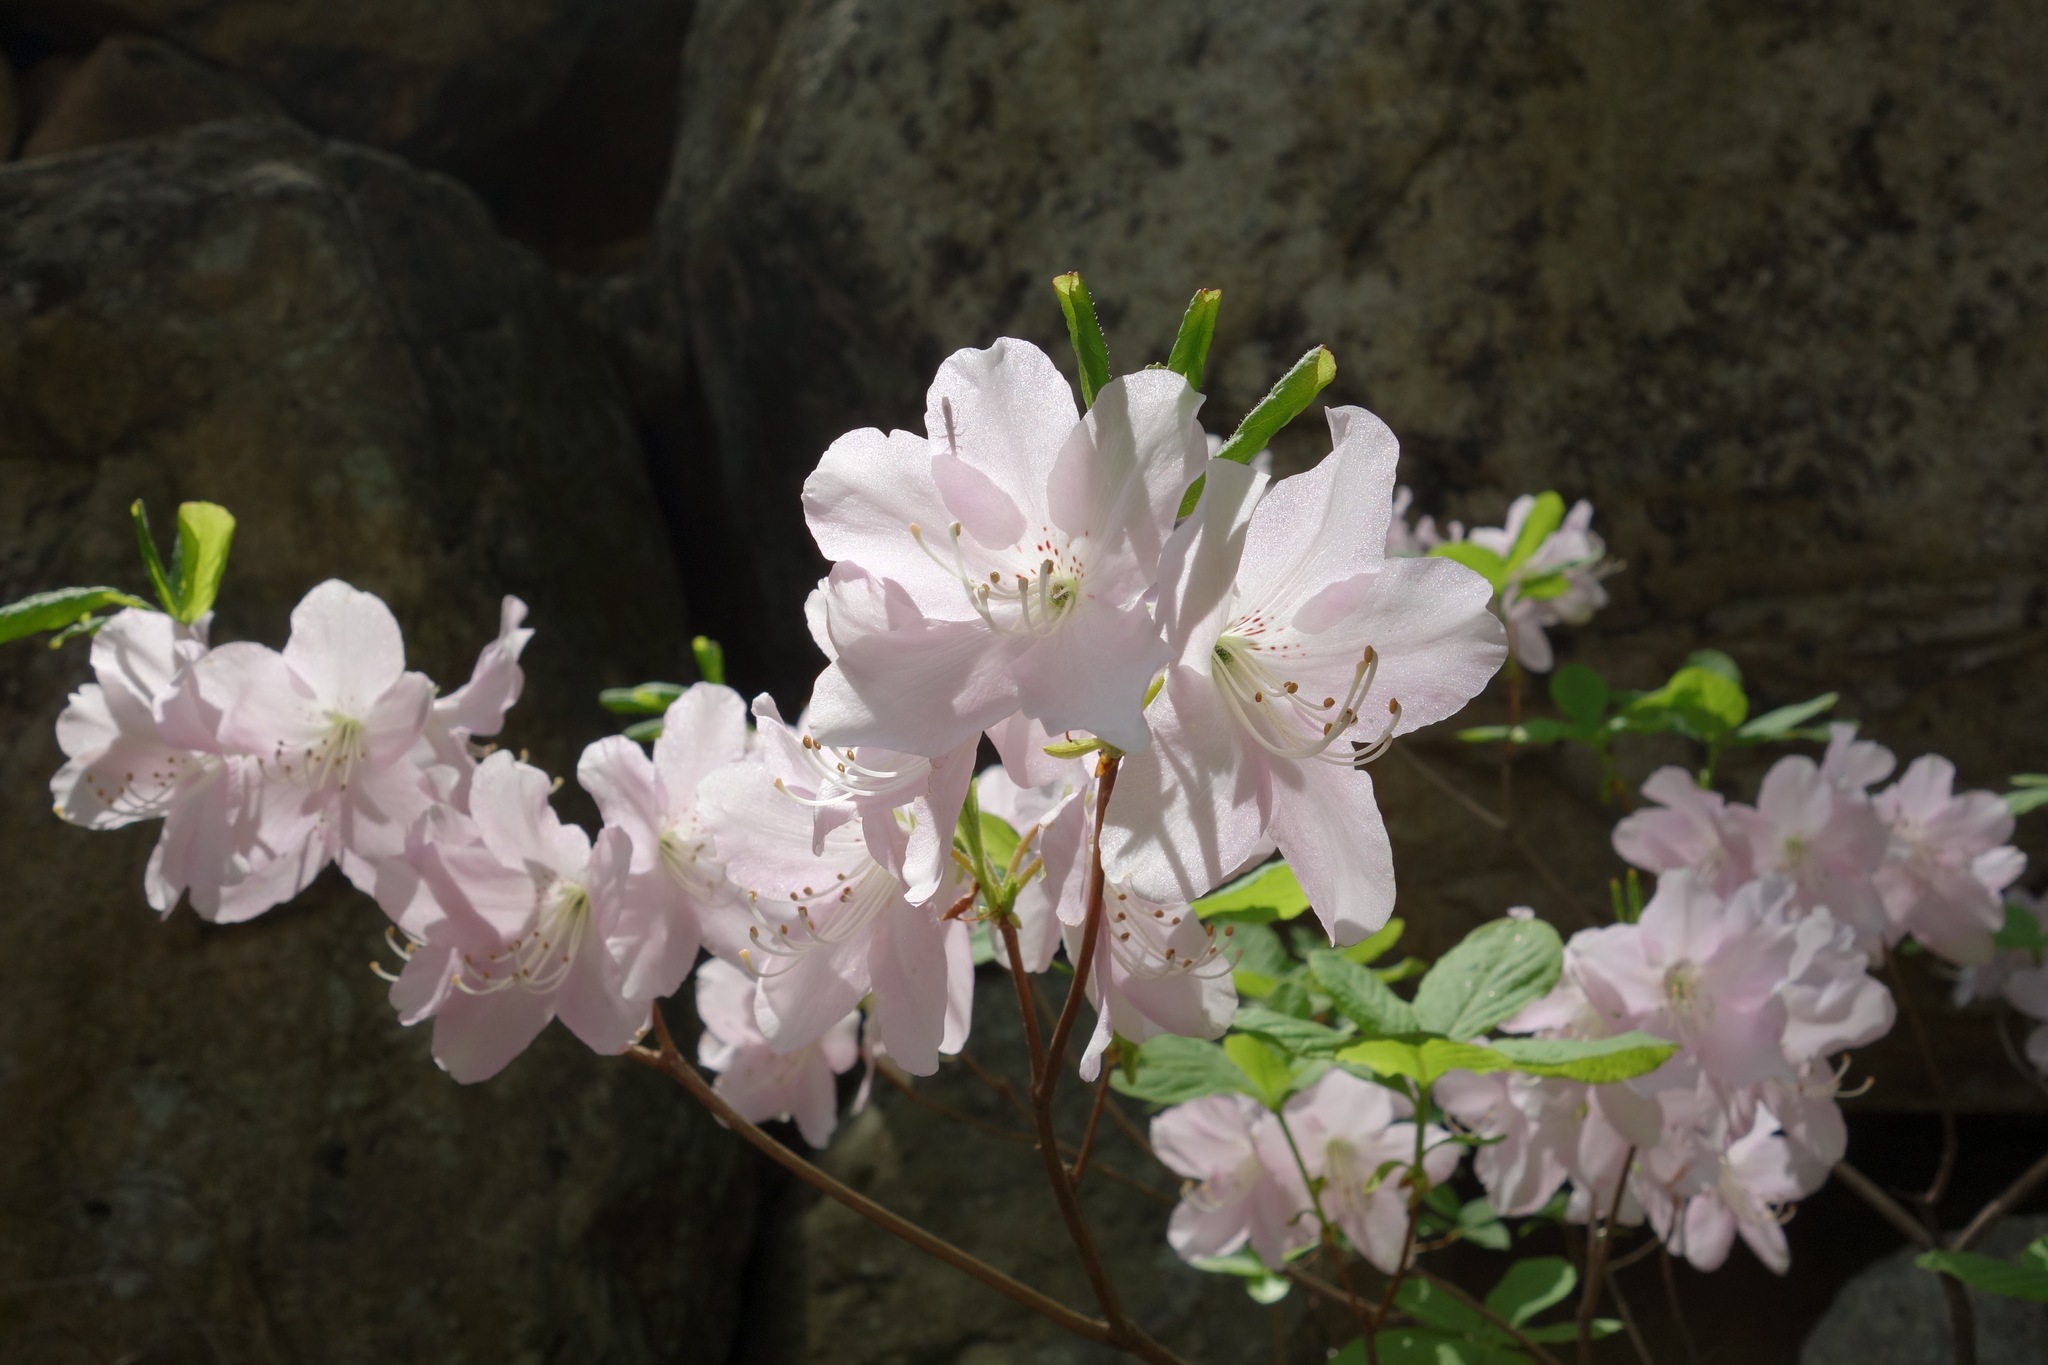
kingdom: Plantae
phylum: Tracheophyta
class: Magnoliopsida
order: Ericales
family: Ericaceae
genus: Rhododendron
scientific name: Rhododendron schlippenbachii
